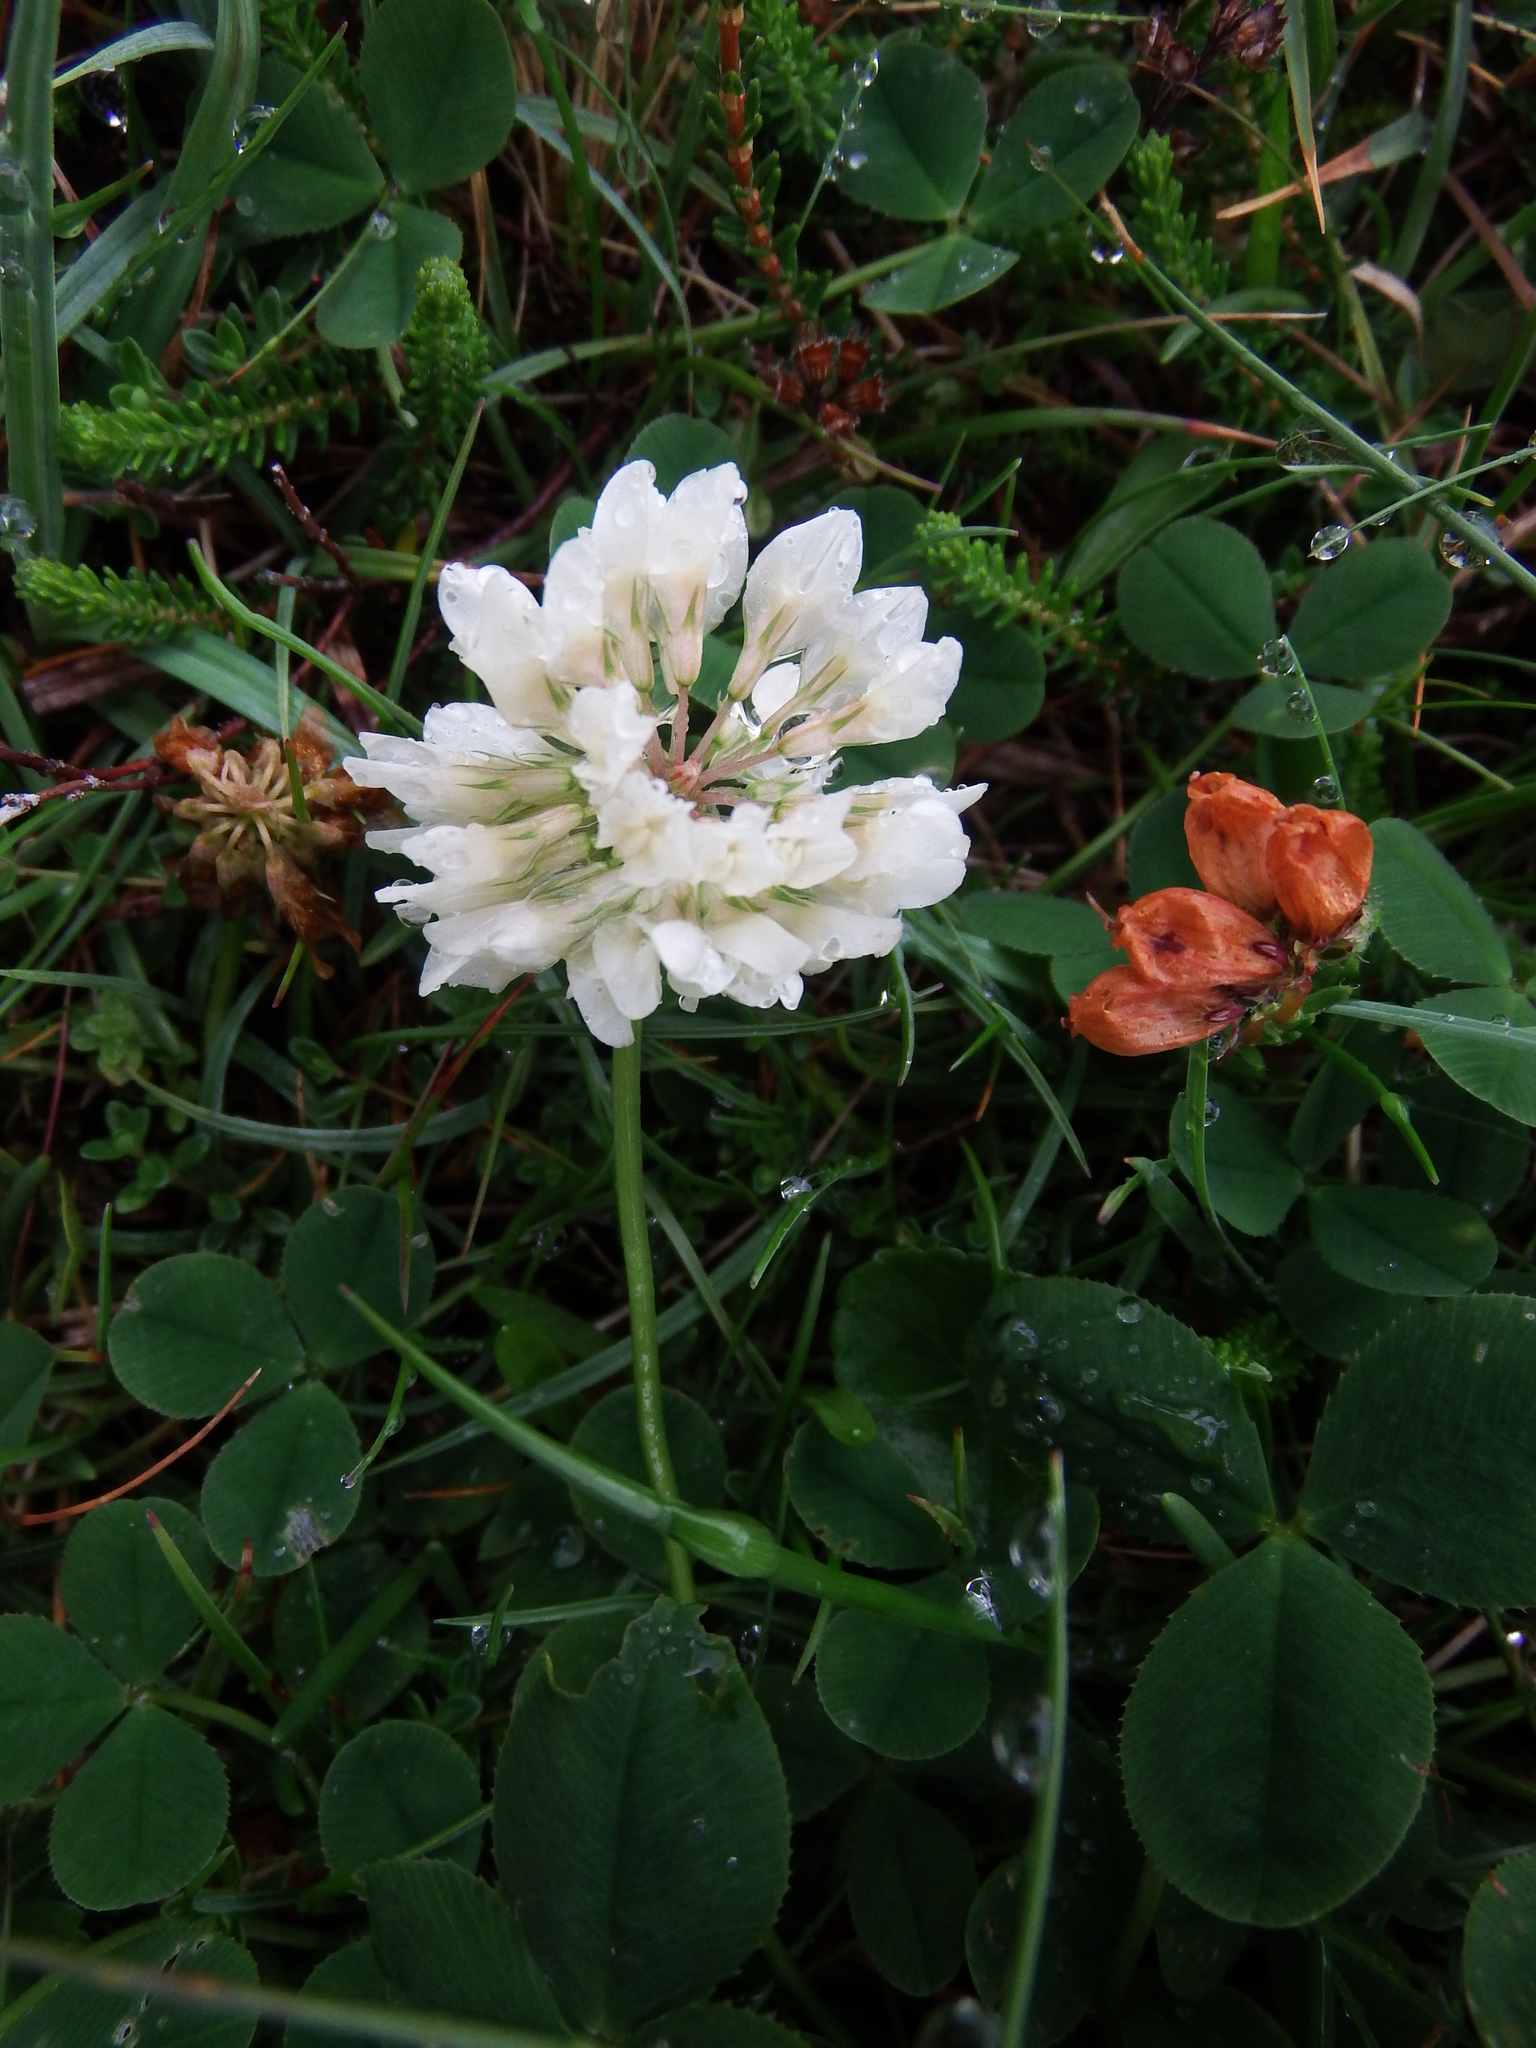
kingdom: Plantae
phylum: Tracheophyta
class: Magnoliopsida
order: Fabales
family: Fabaceae
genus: Trifolium
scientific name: Trifolium repens
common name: White clover
